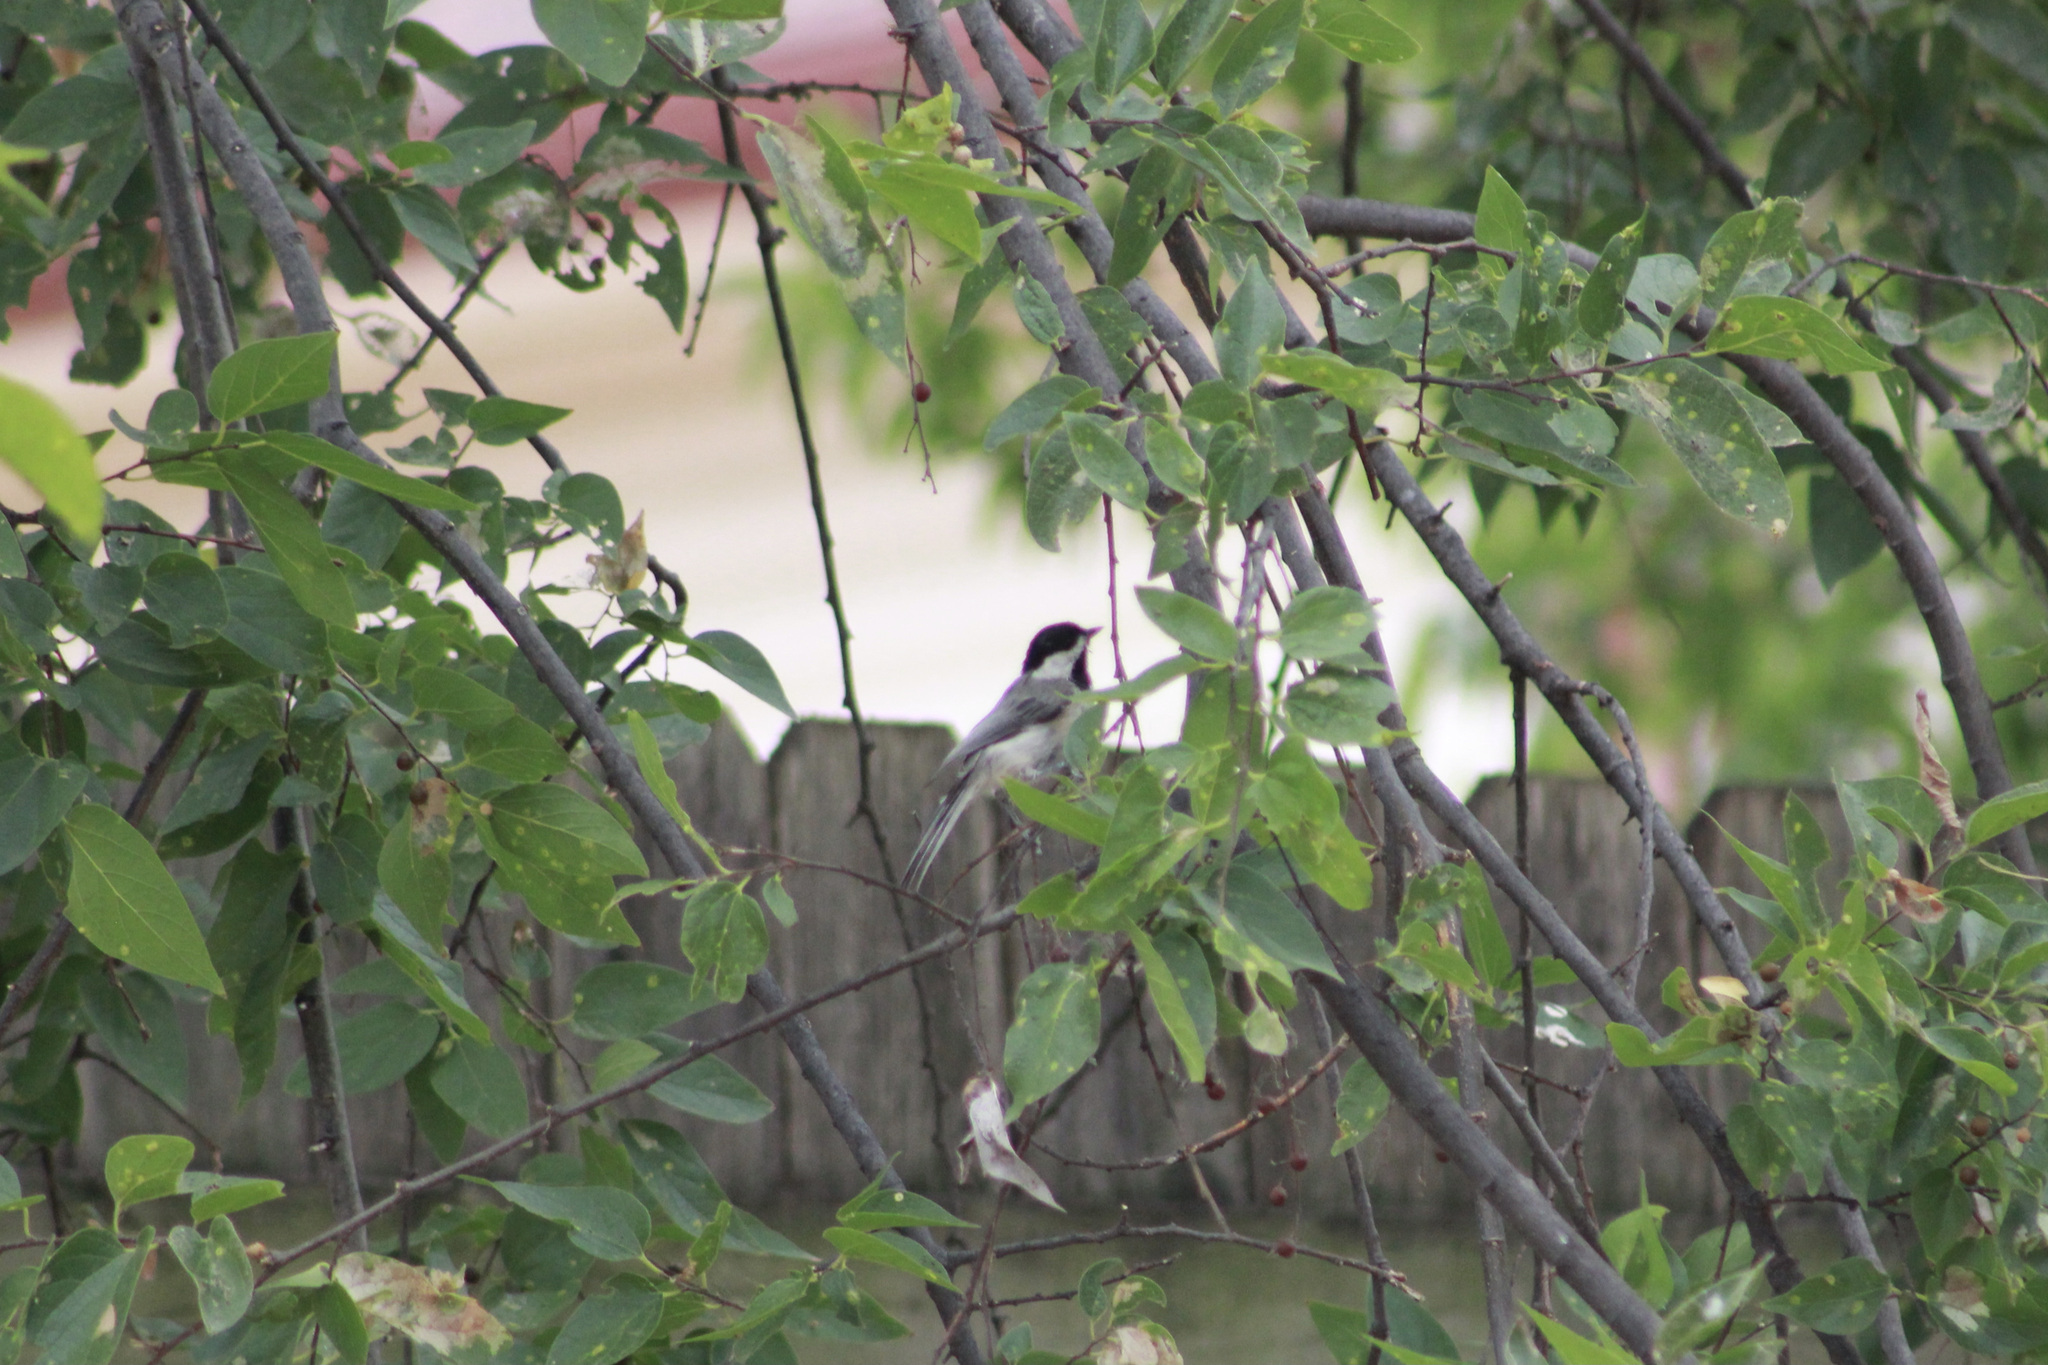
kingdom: Animalia
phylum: Chordata
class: Aves
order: Passeriformes
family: Paridae
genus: Poecile
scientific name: Poecile carolinensis
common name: Carolina chickadee
